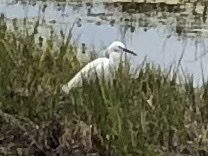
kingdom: Animalia
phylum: Chordata
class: Aves
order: Pelecaniformes
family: Ardeidae
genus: Egretta
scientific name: Egretta garzetta
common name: Little egret
